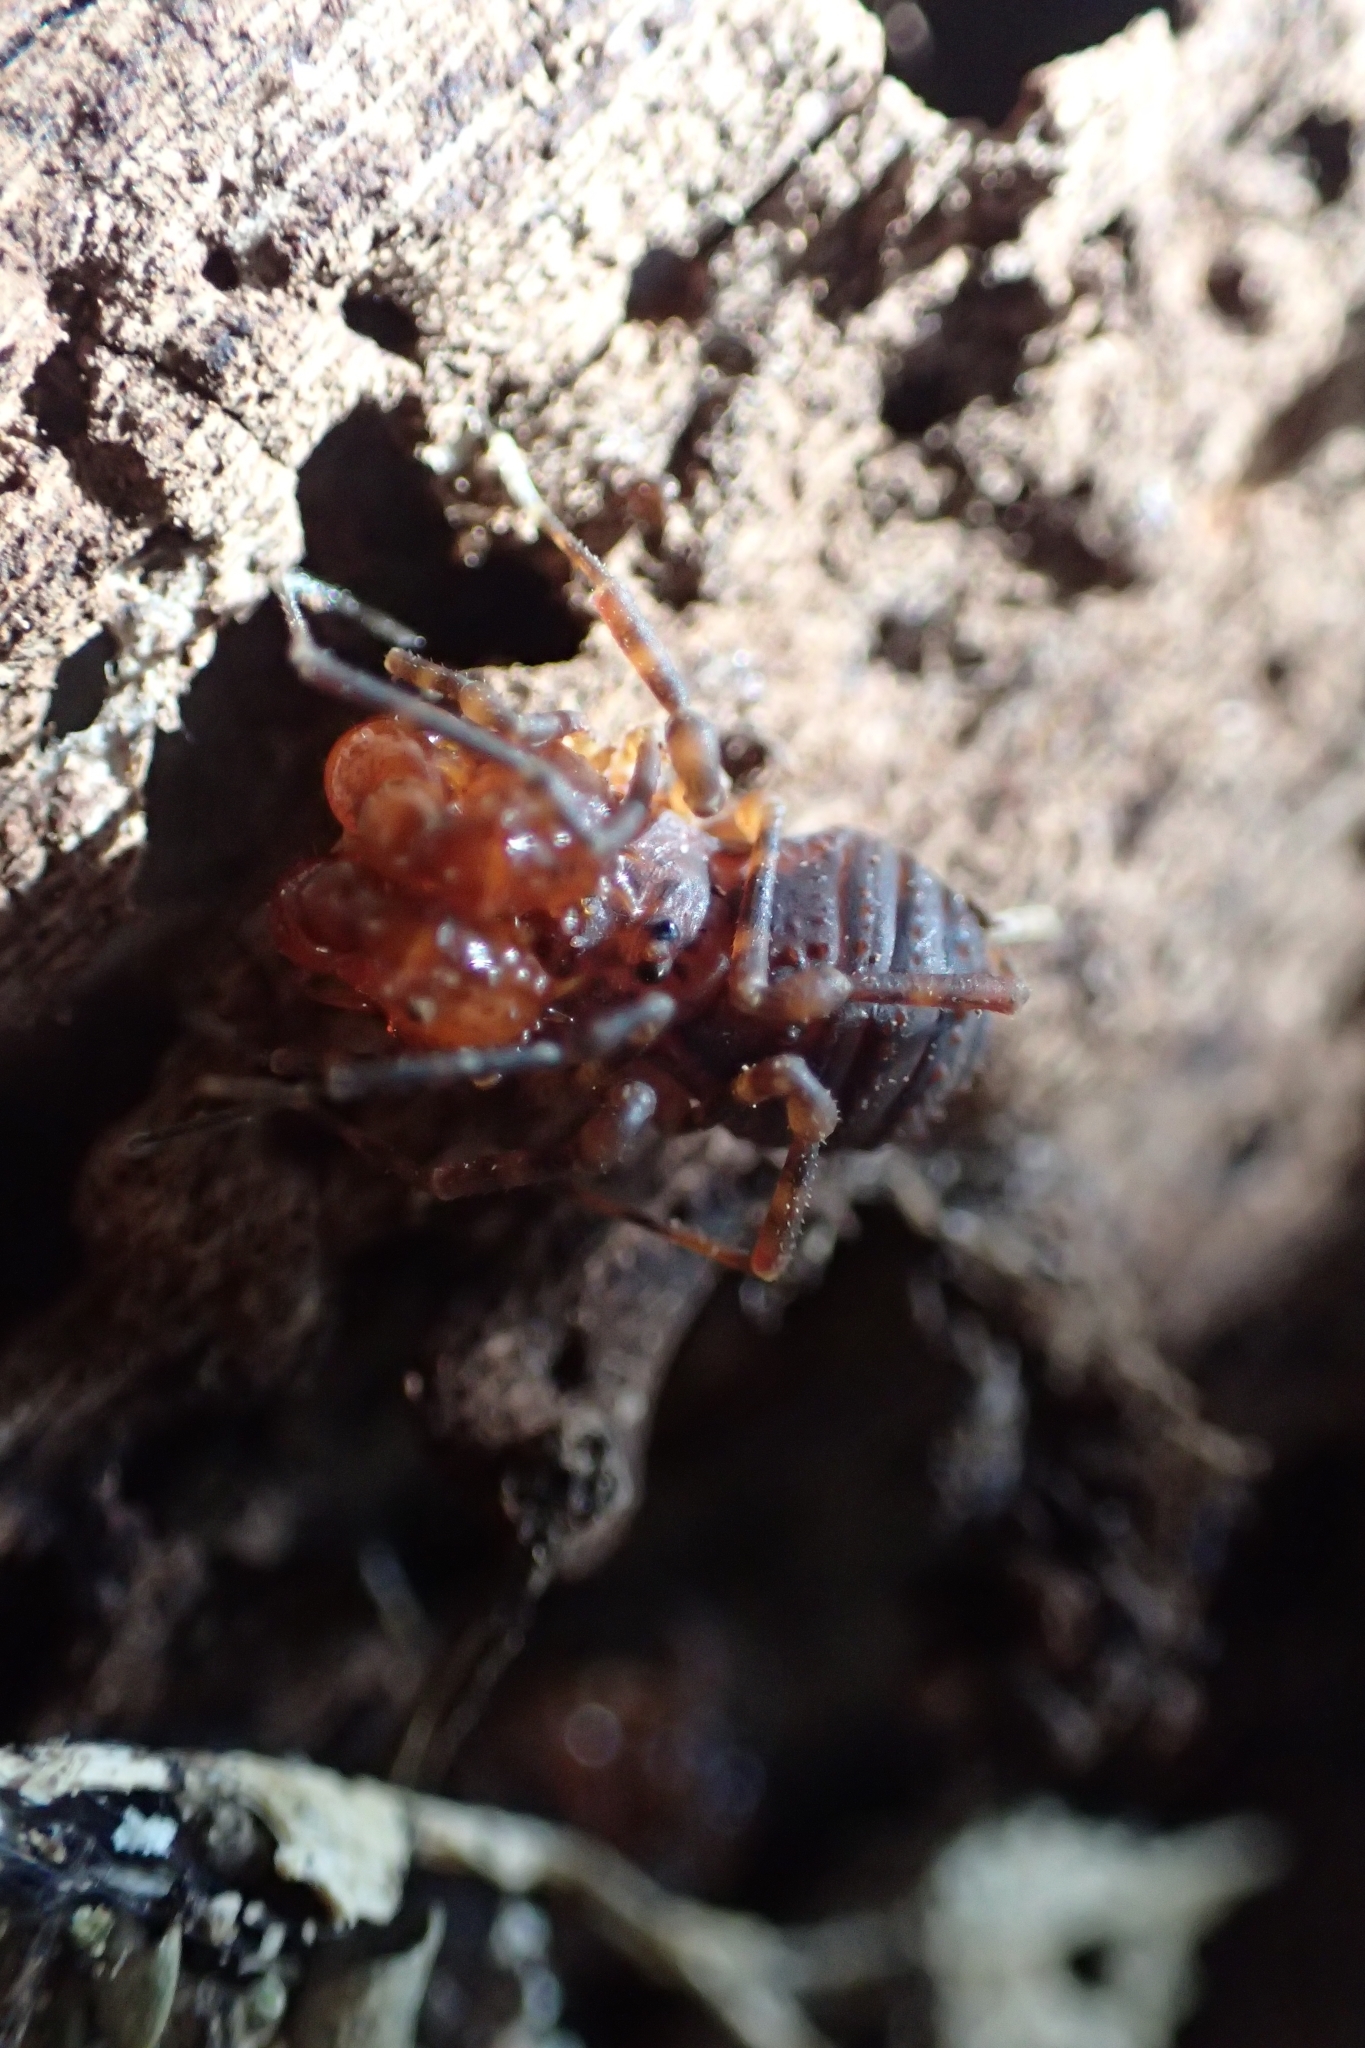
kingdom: Animalia
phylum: Arthropoda
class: Arachnida
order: Opiliones
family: Triaenonychidae
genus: Sorensenella
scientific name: Sorensenella prehensor
